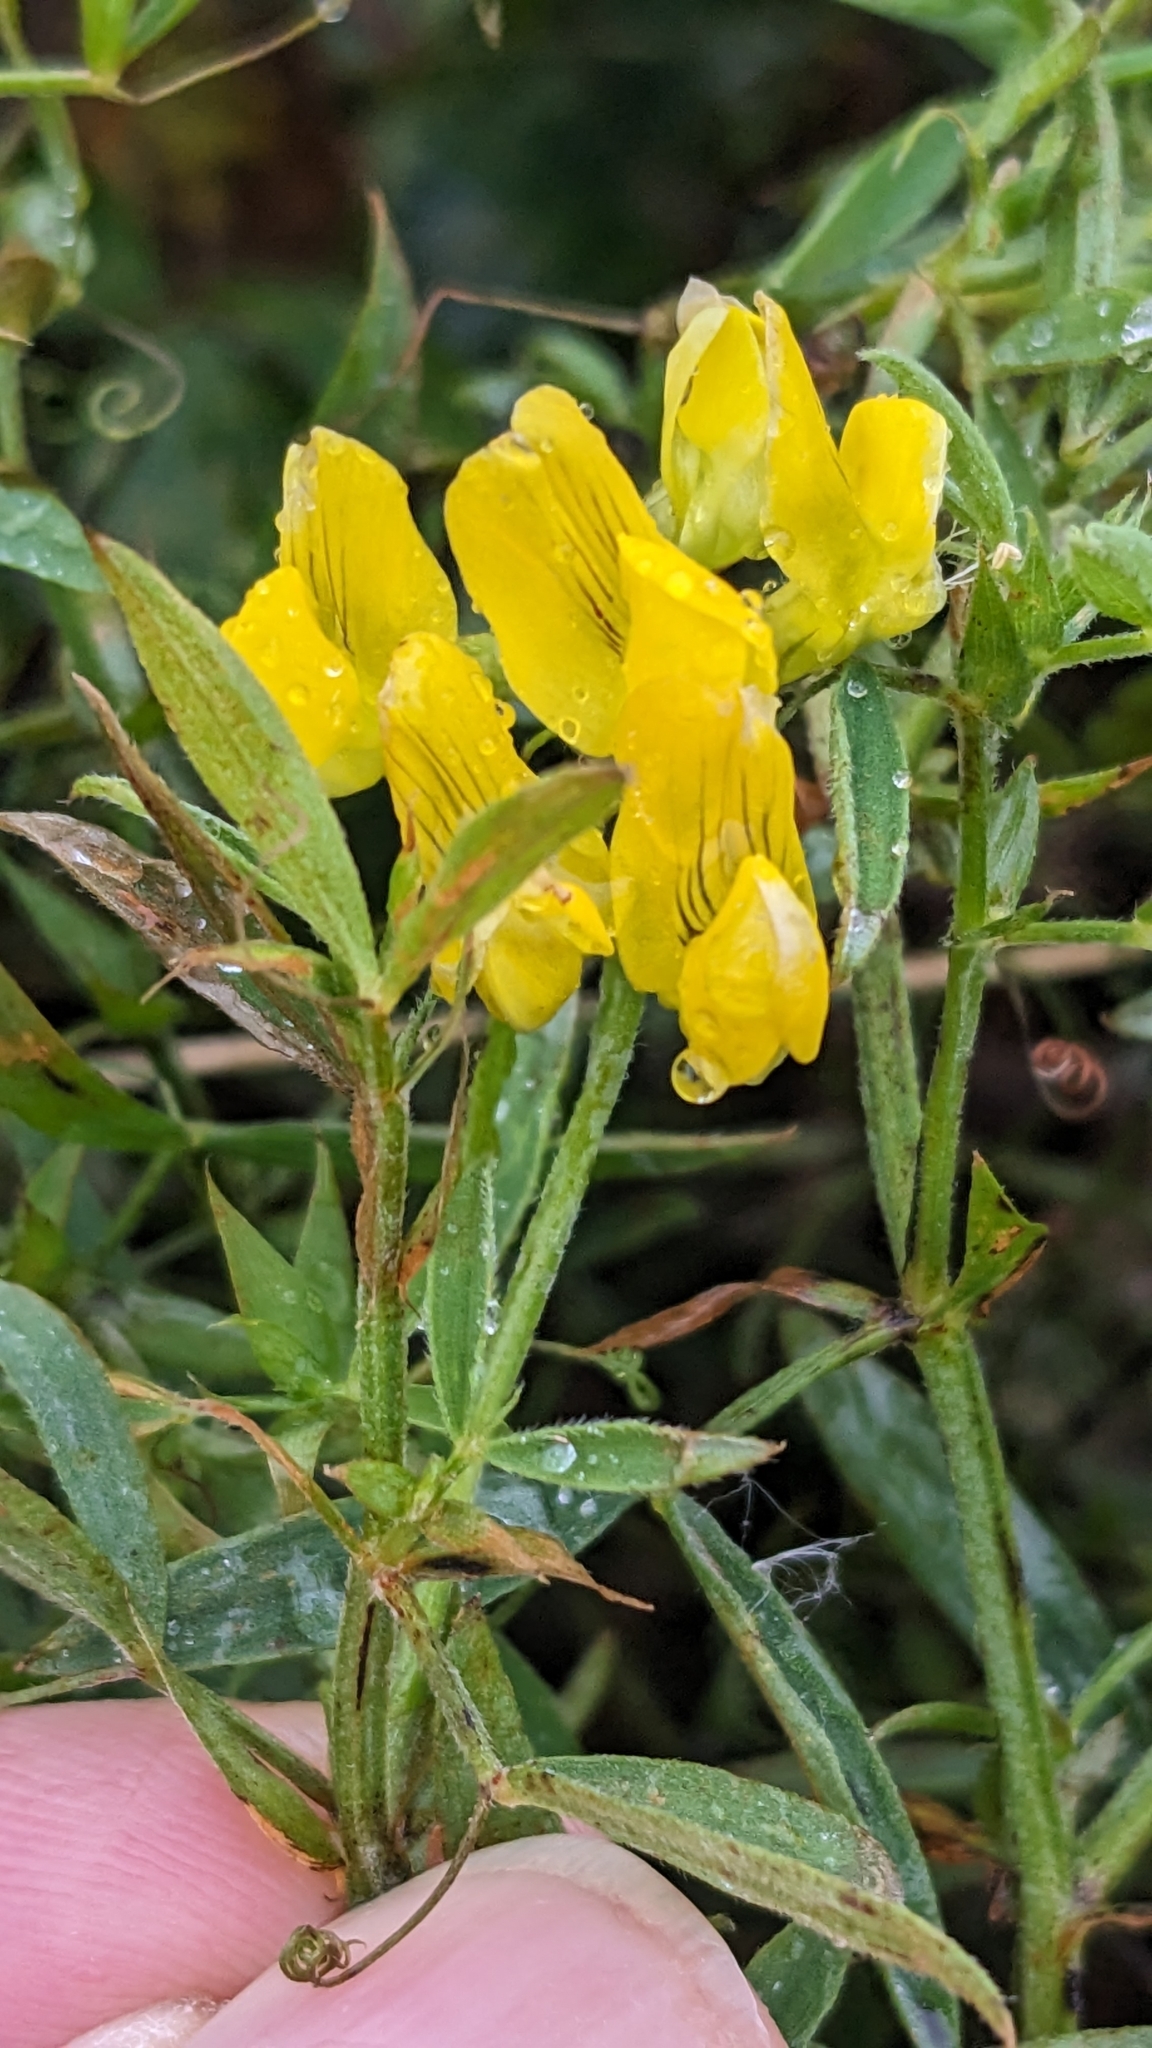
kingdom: Plantae
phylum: Tracheophyta
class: Magnoliopsida
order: Fabales
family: Fabaceae
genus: Lathyrus
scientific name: Lathyrus pratensis
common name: Meadow vetchling
